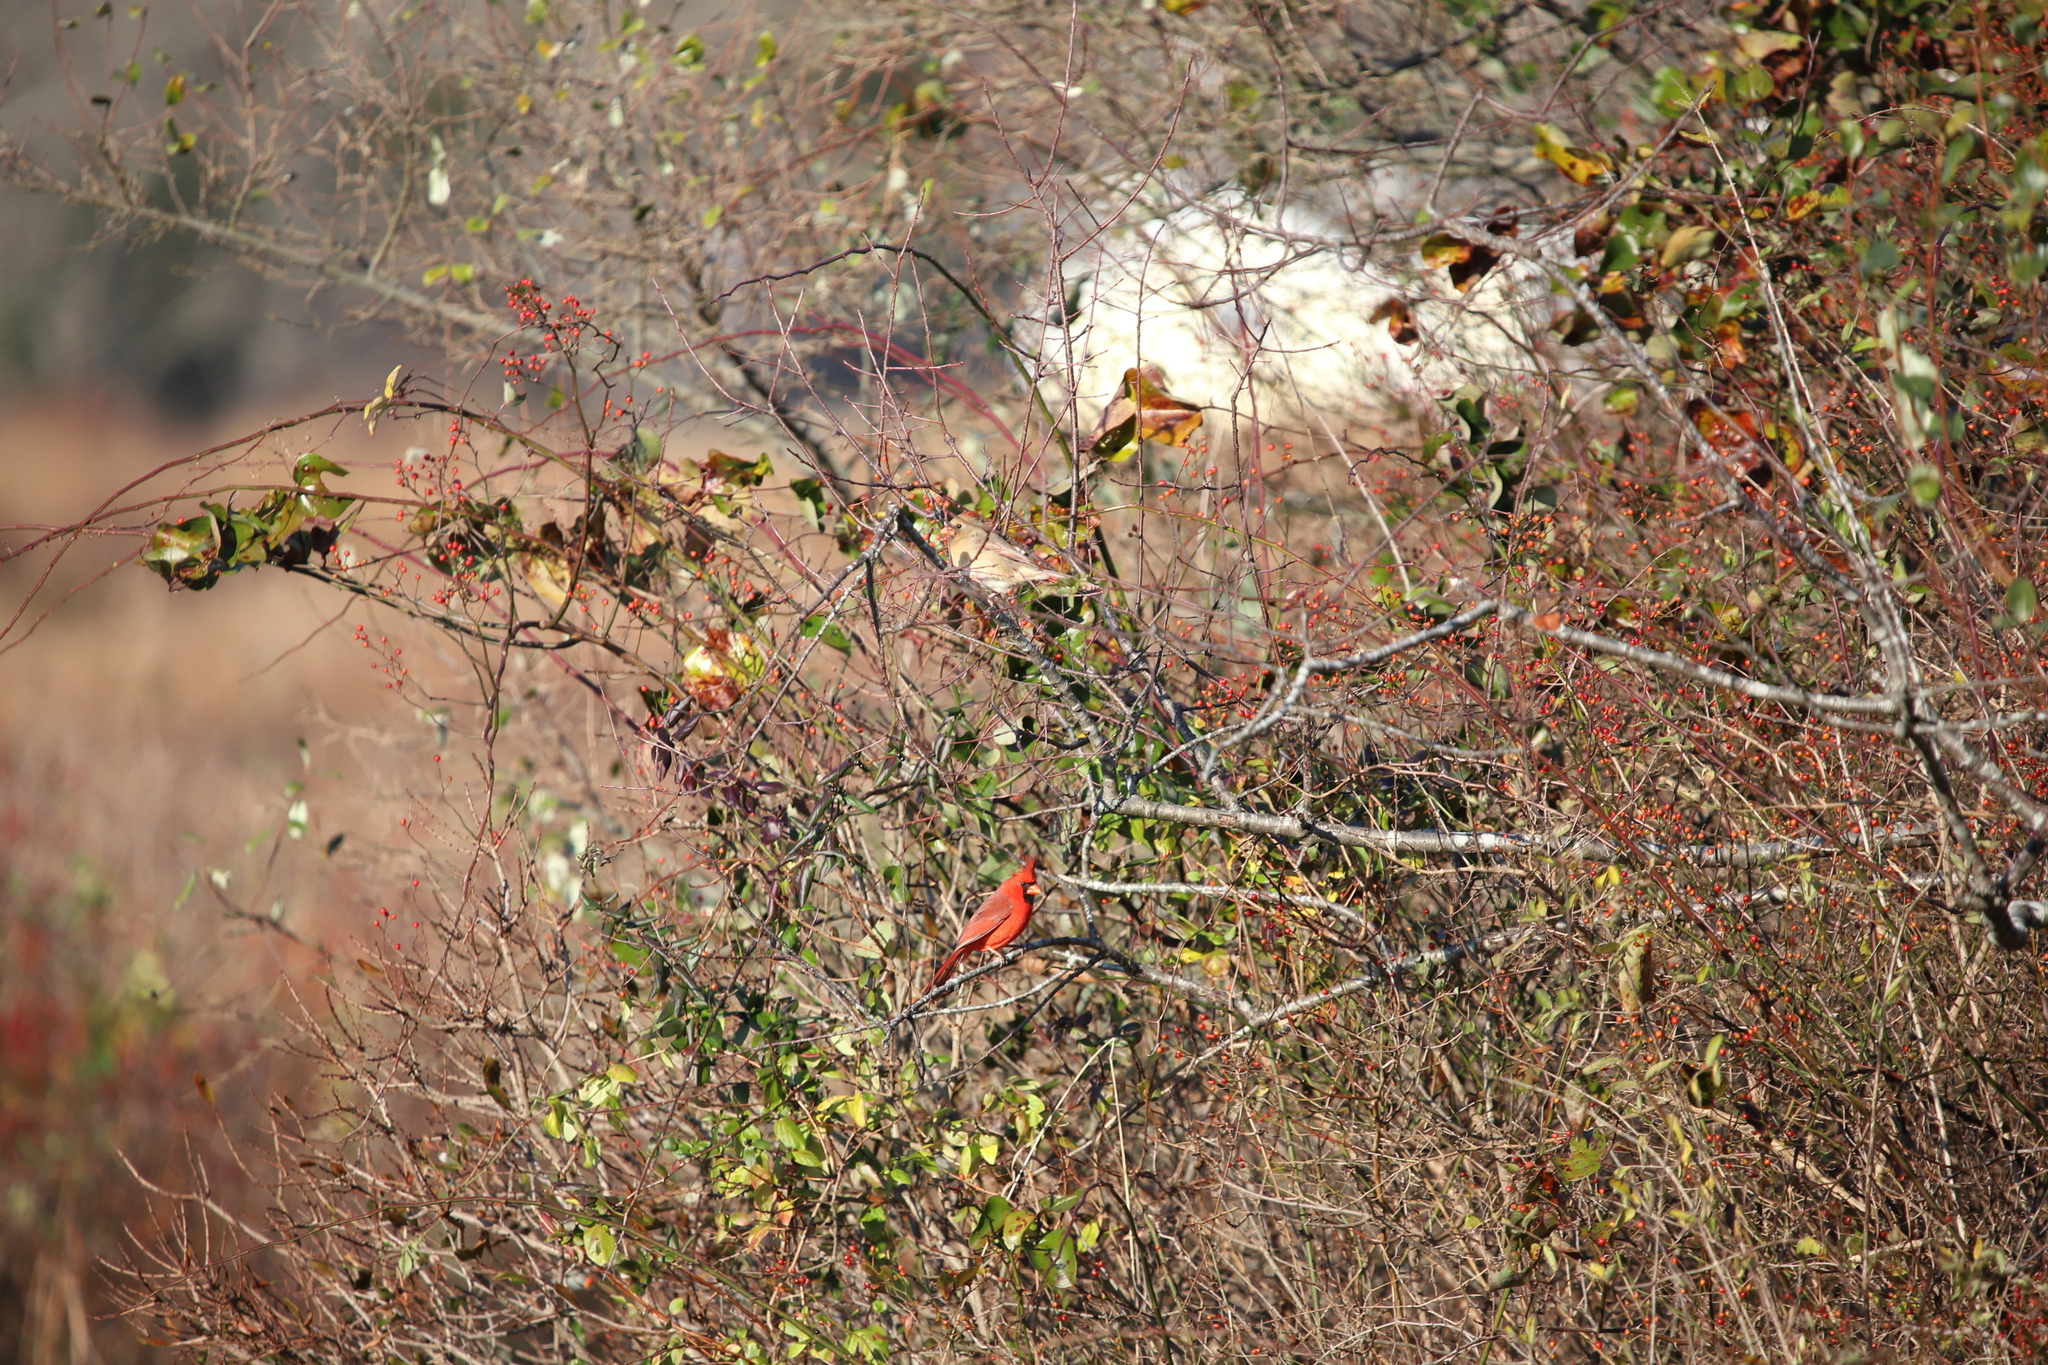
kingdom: Animalia
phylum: Chordata
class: Aves
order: Passeriformes
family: Cardinalidae
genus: Cardinalis
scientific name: Cardinalis cardinalis
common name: Northern cardinal
